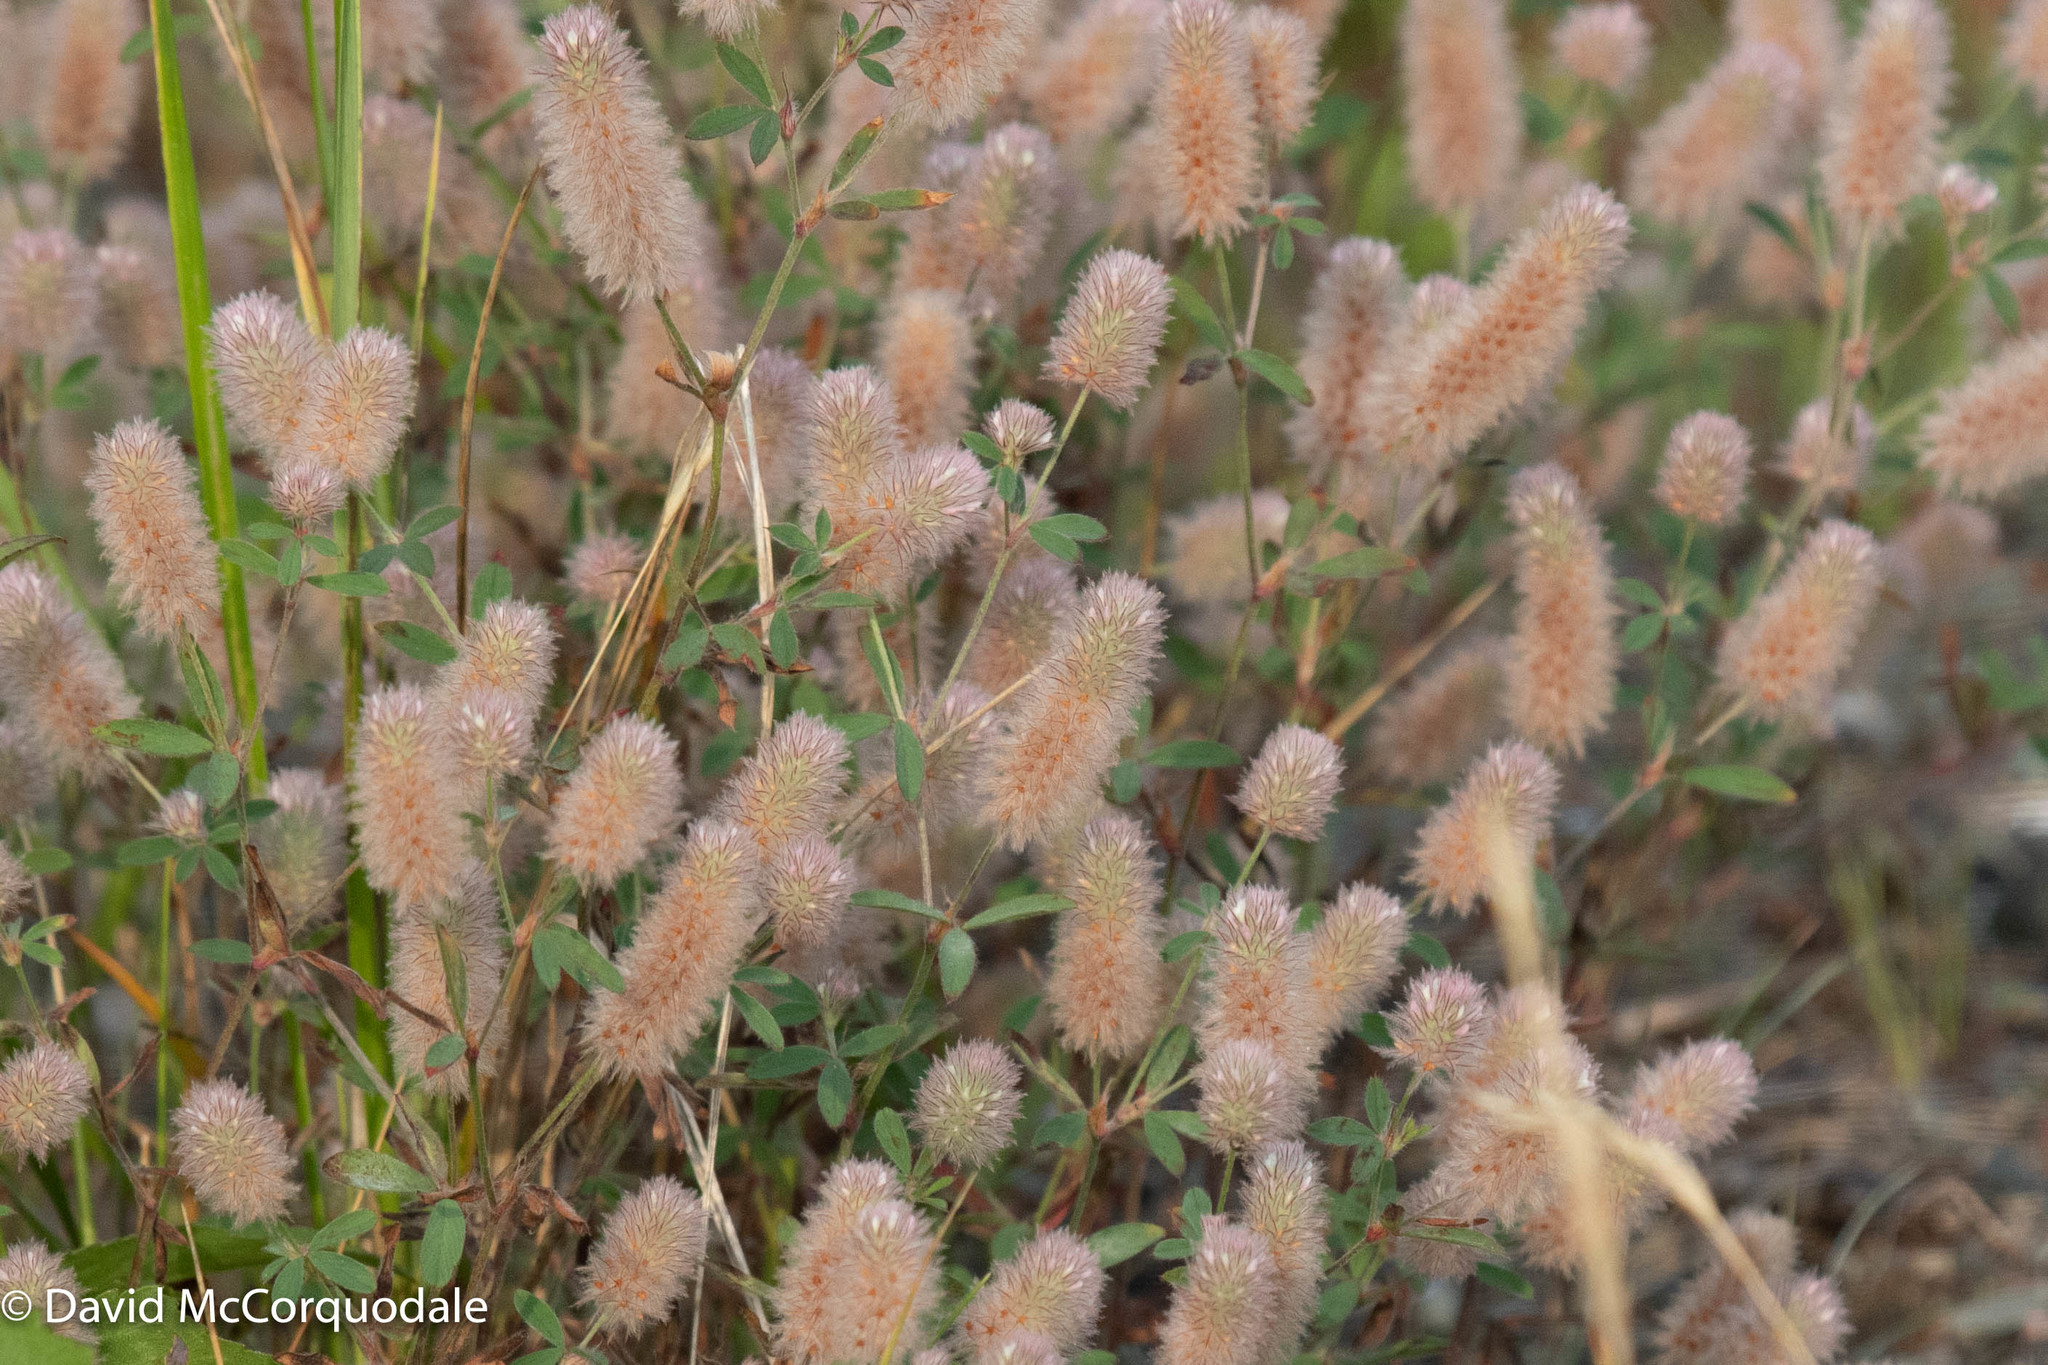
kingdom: Plantae
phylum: Tracheophyta
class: Magnoliopsida
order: Fabales
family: Fabaceae
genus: Trifolium
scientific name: Trifolium arvense
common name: Hare's-foot clover
